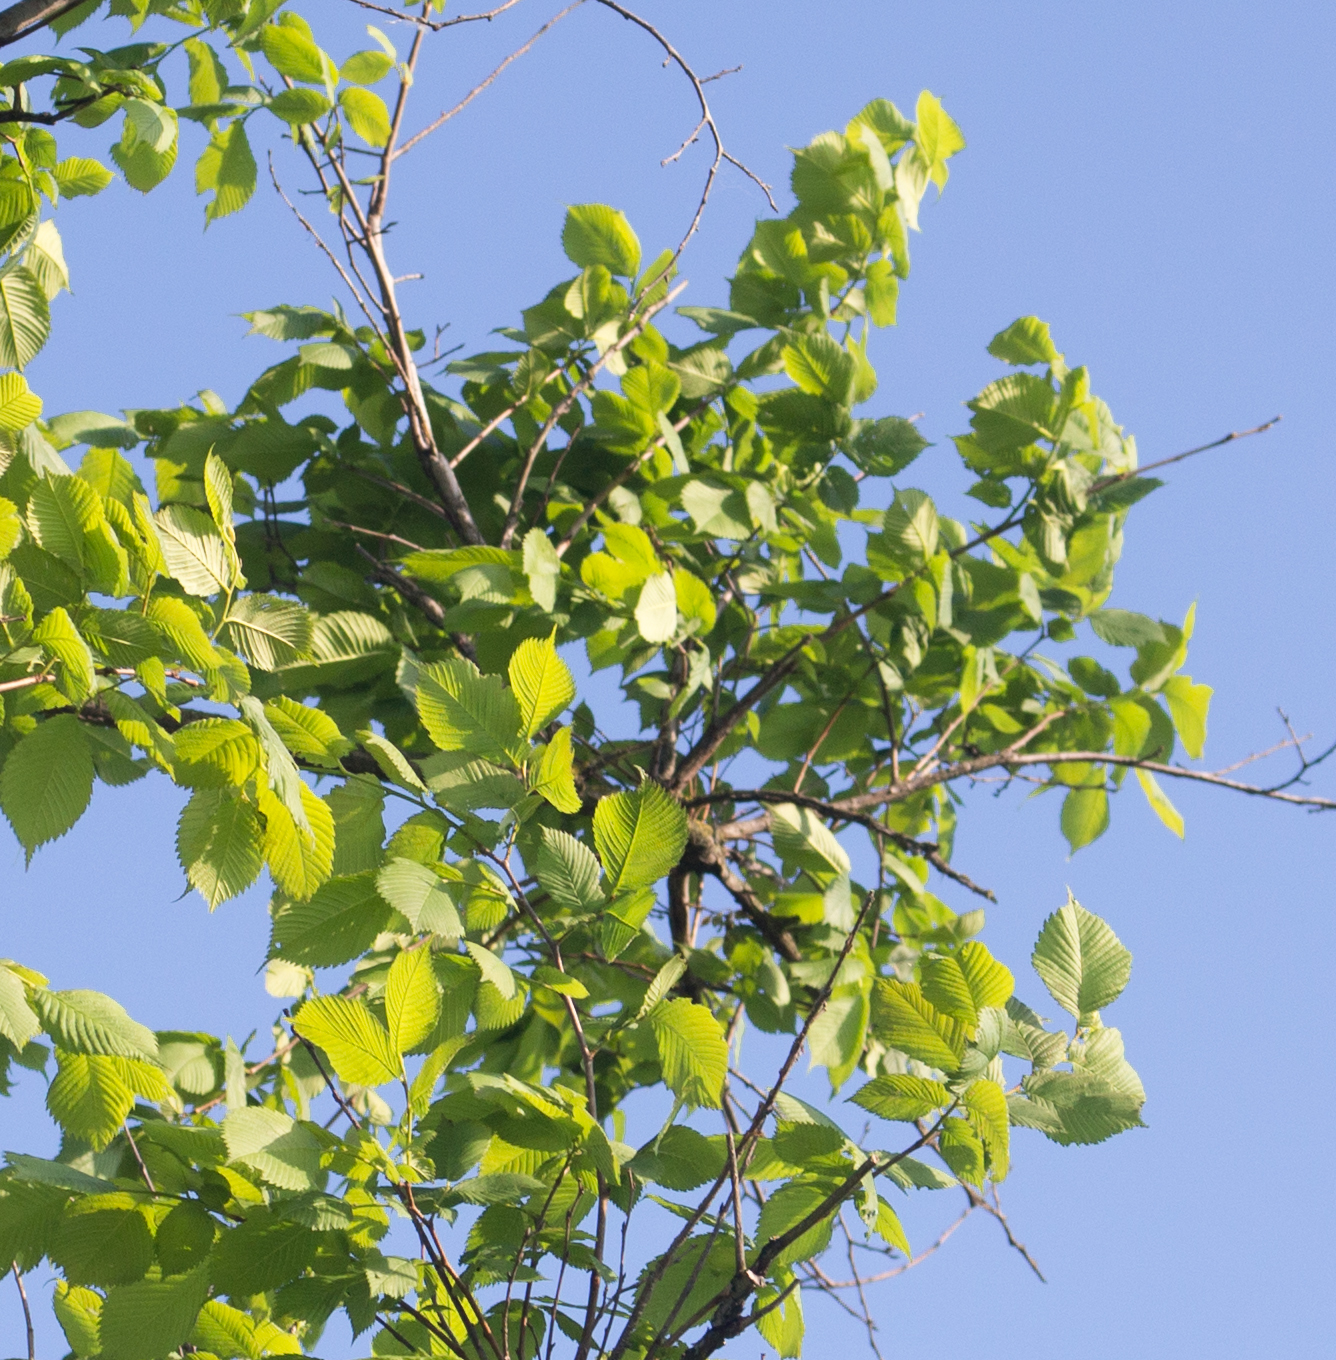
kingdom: Plantae
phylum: Tracheophyta
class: Magnoliopsida
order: Rosales
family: Ulmaceae
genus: Ulmus
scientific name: Ulmus laevis
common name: European white-elm
